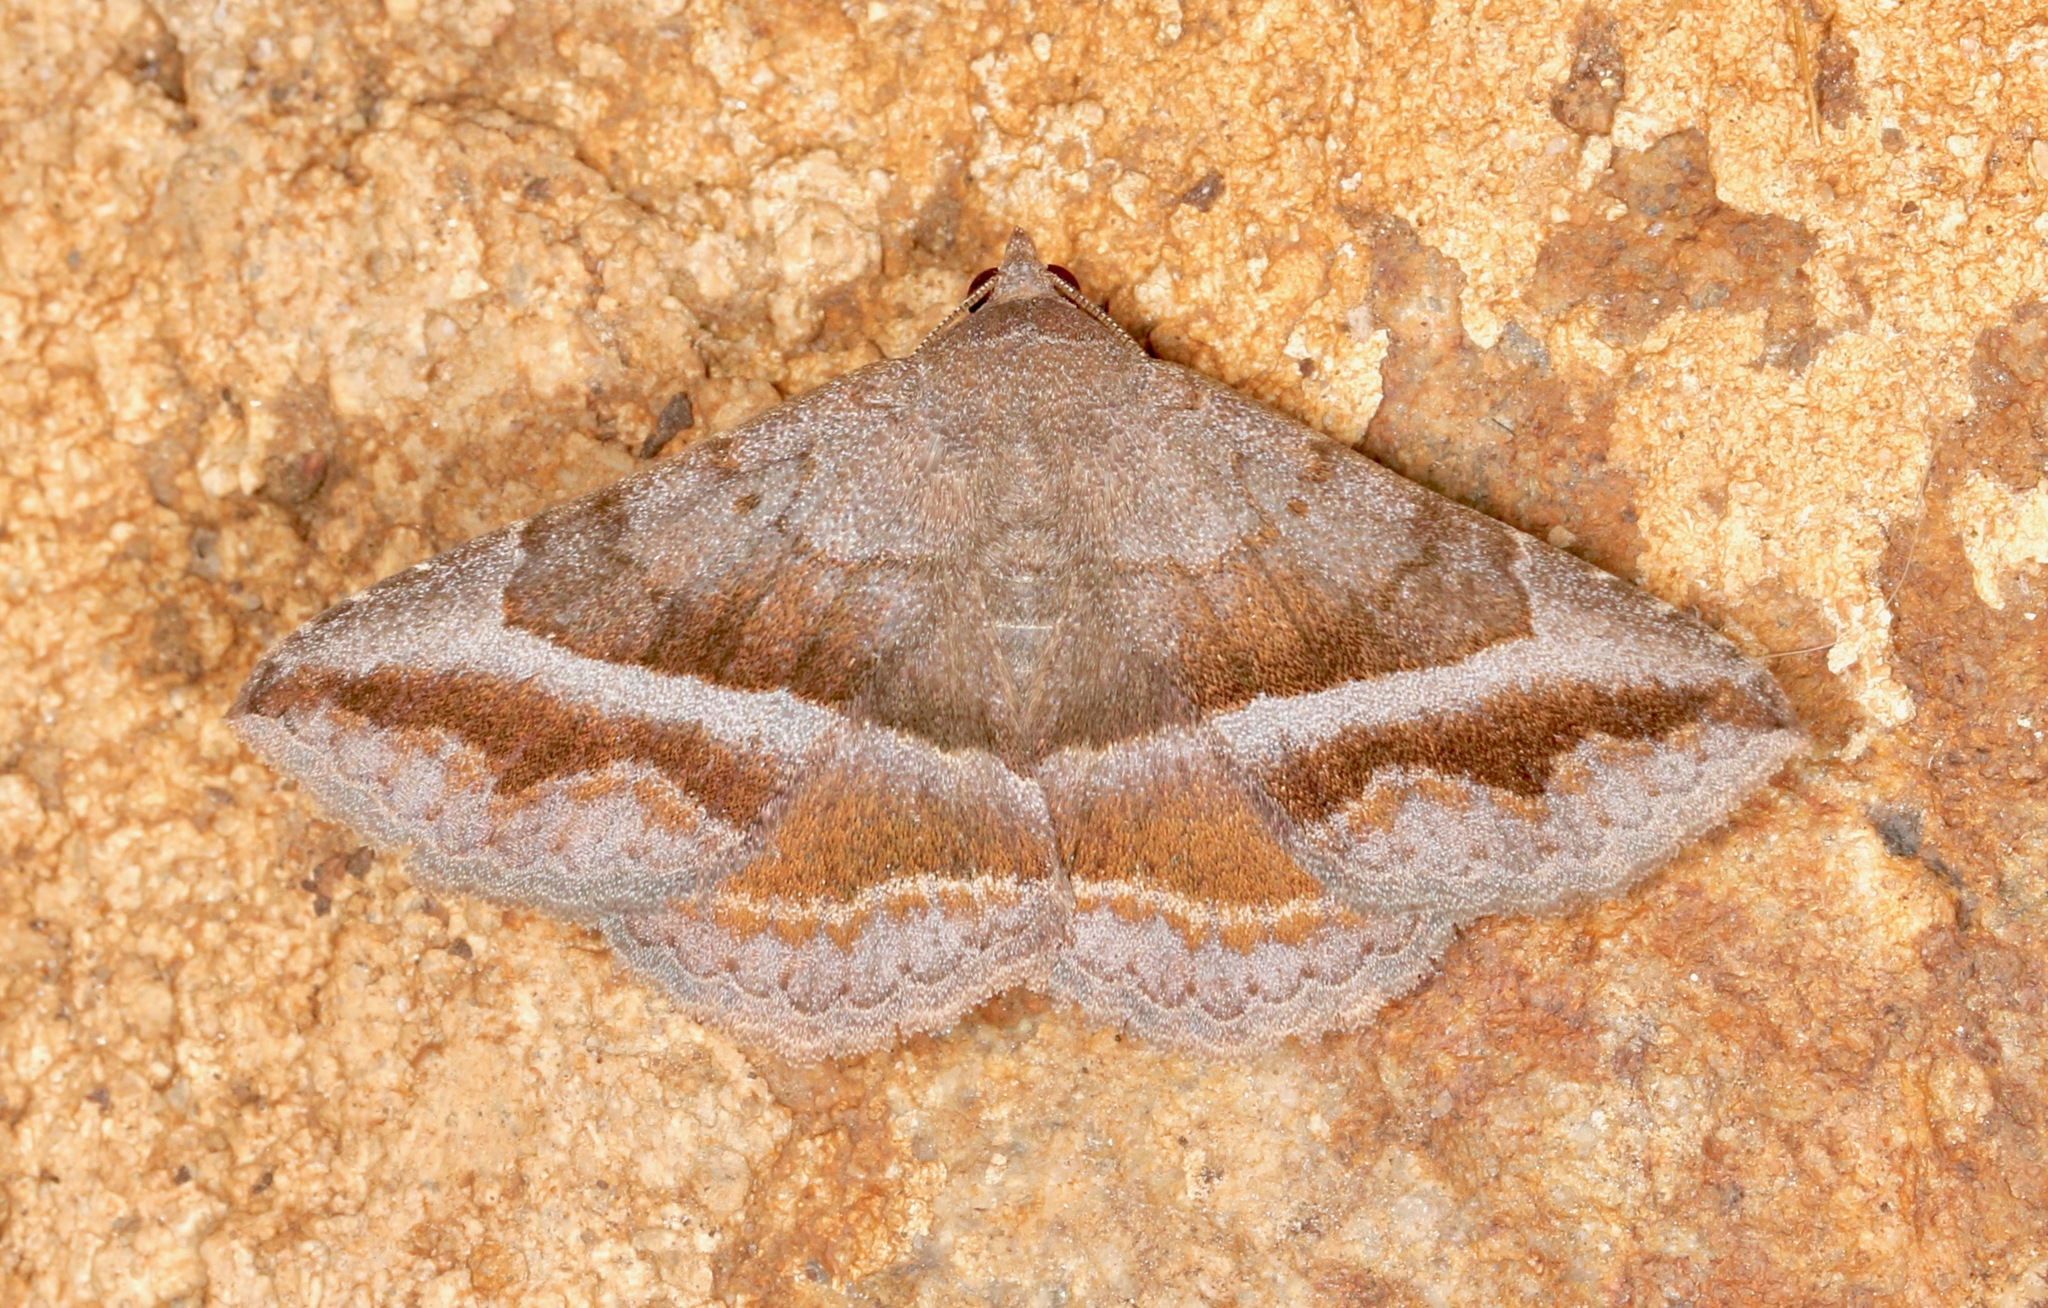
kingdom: Animalia
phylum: Arthropoda
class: Insecta
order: Lepidoptera
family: Erebidae
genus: Lesmone
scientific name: Lesmone griseipennis
